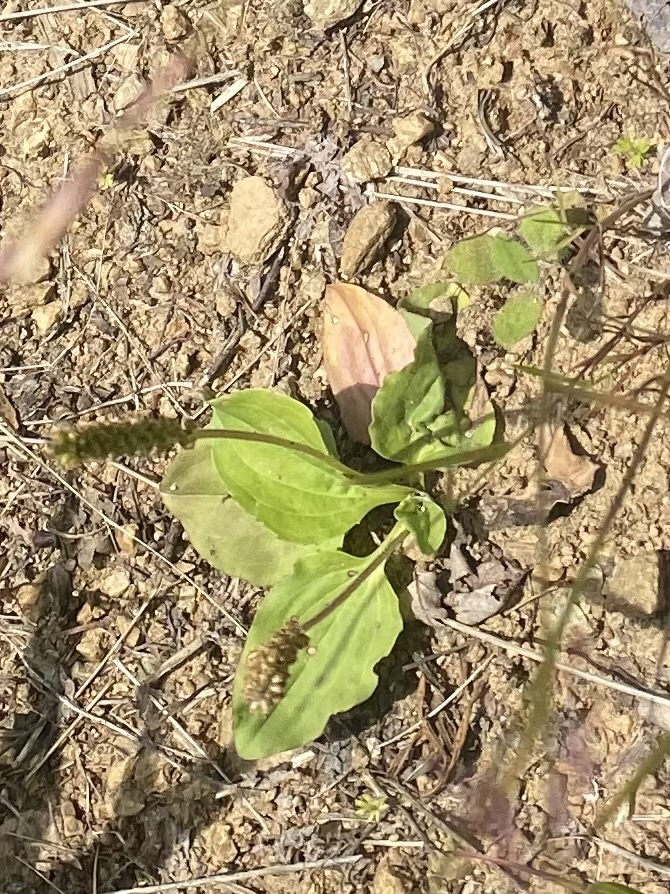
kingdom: Plantae
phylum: Tracheophyta
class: Magnoliopsida
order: Lamiales
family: Plantaginaceae
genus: Plantago
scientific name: Plantago major
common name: Common plantain
